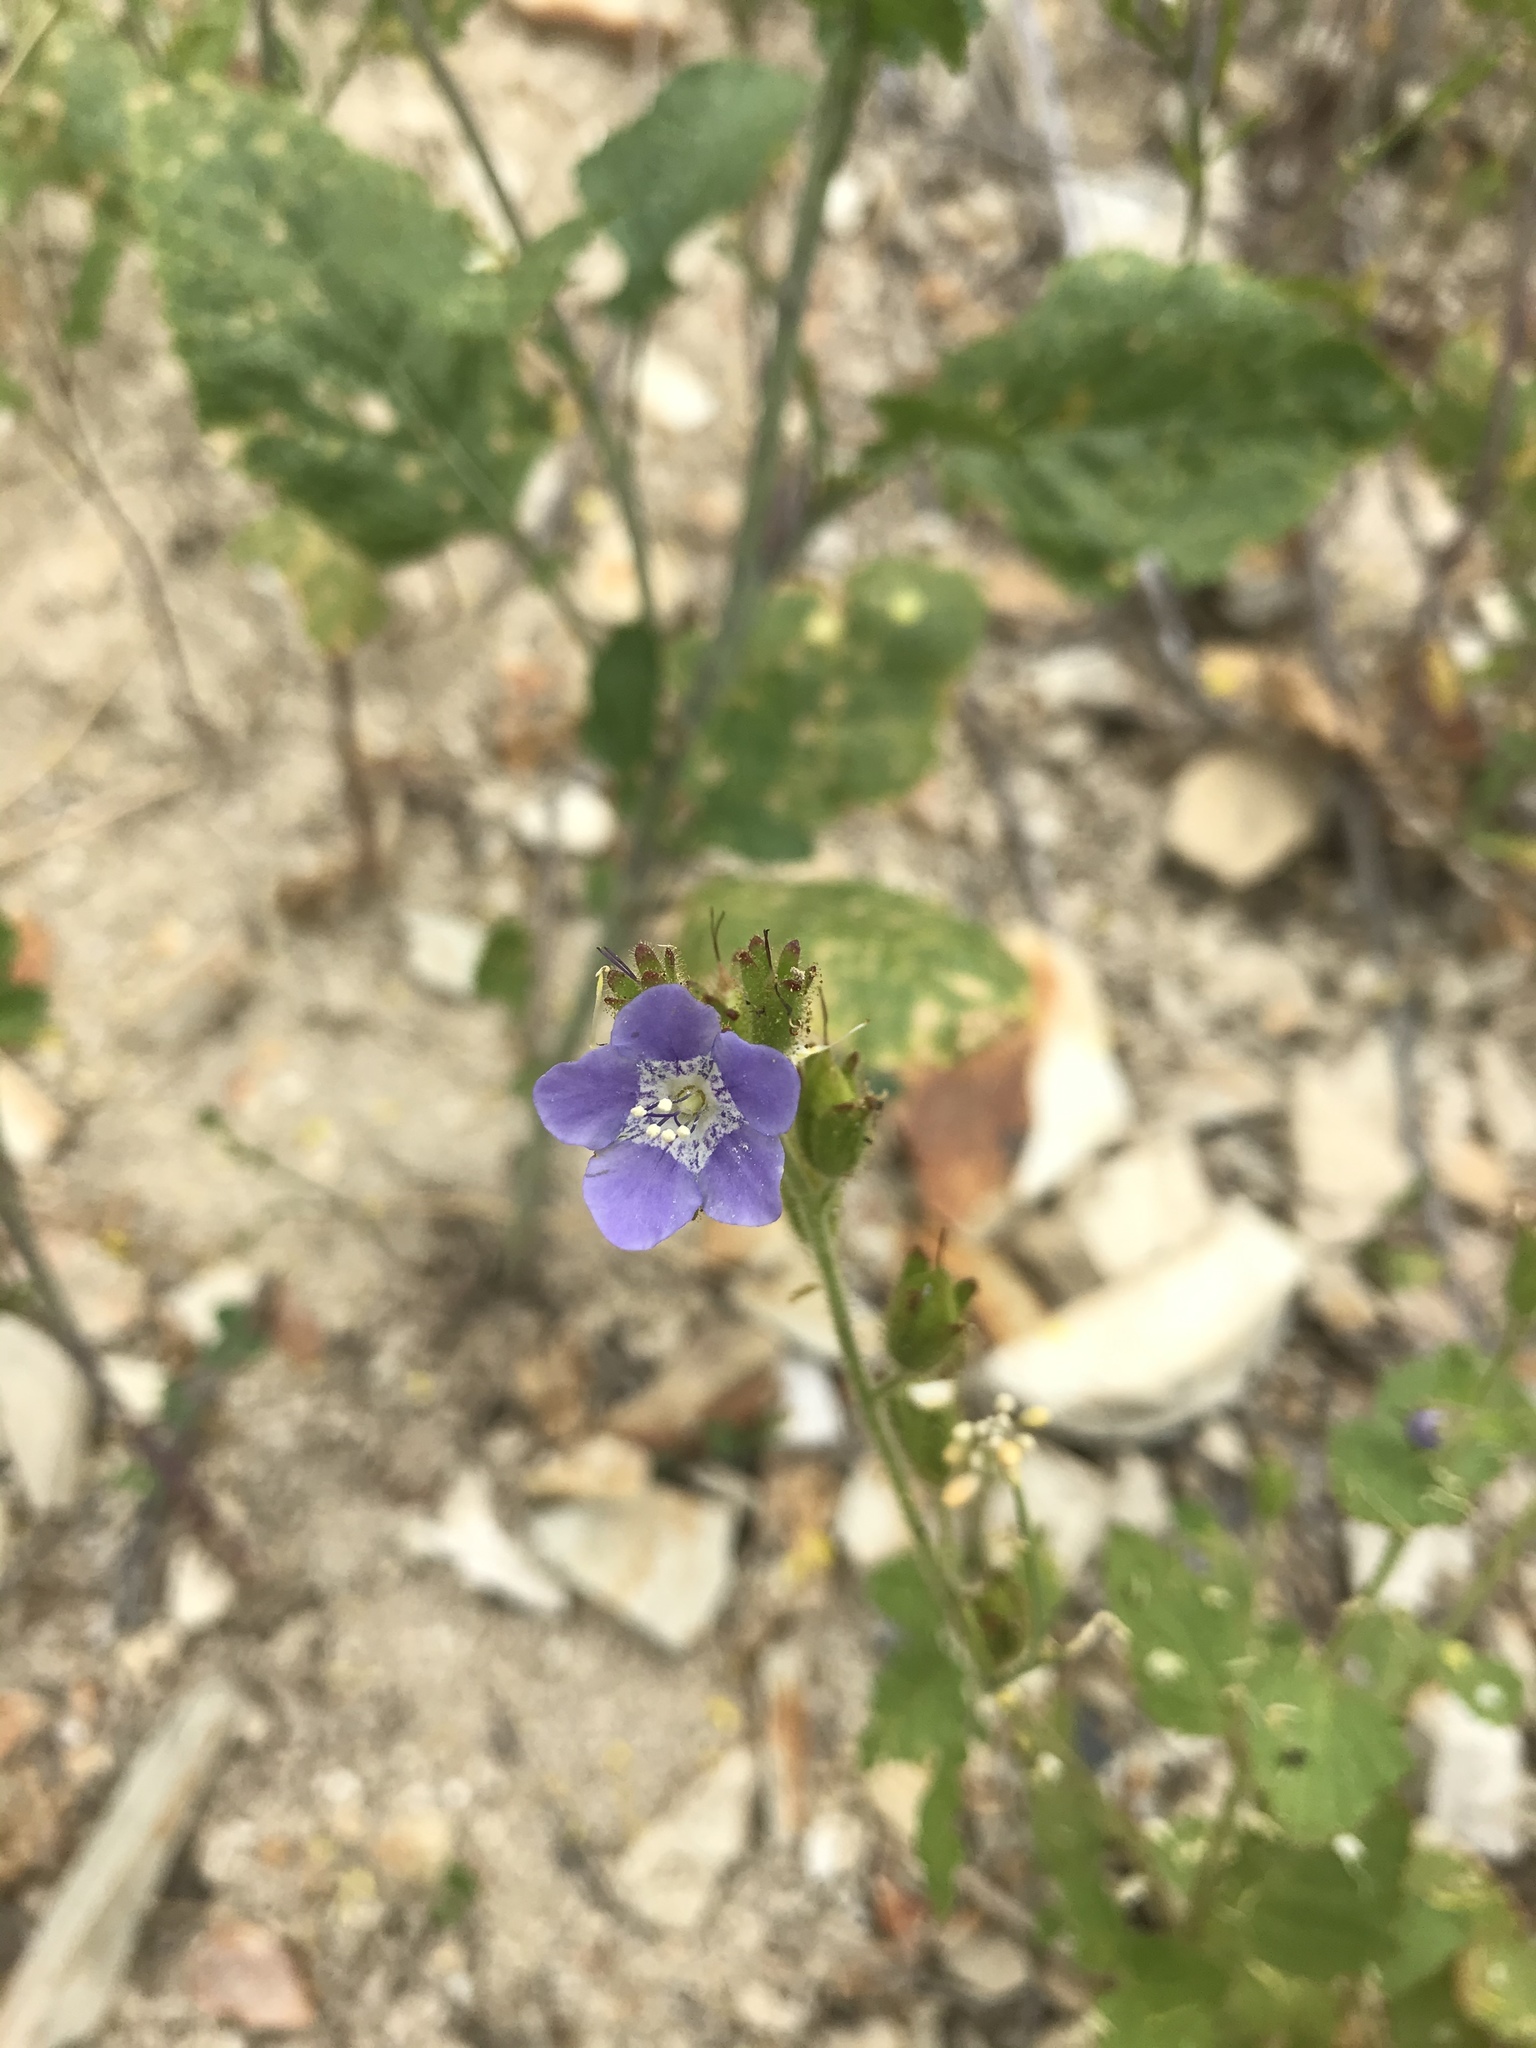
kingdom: Plantae
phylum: Tracheophyta
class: Magnoliopsida
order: Boraginales
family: Hydrophyllaceae
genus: Phacelia
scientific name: Phacelia viscida
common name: Sticky phacelia
